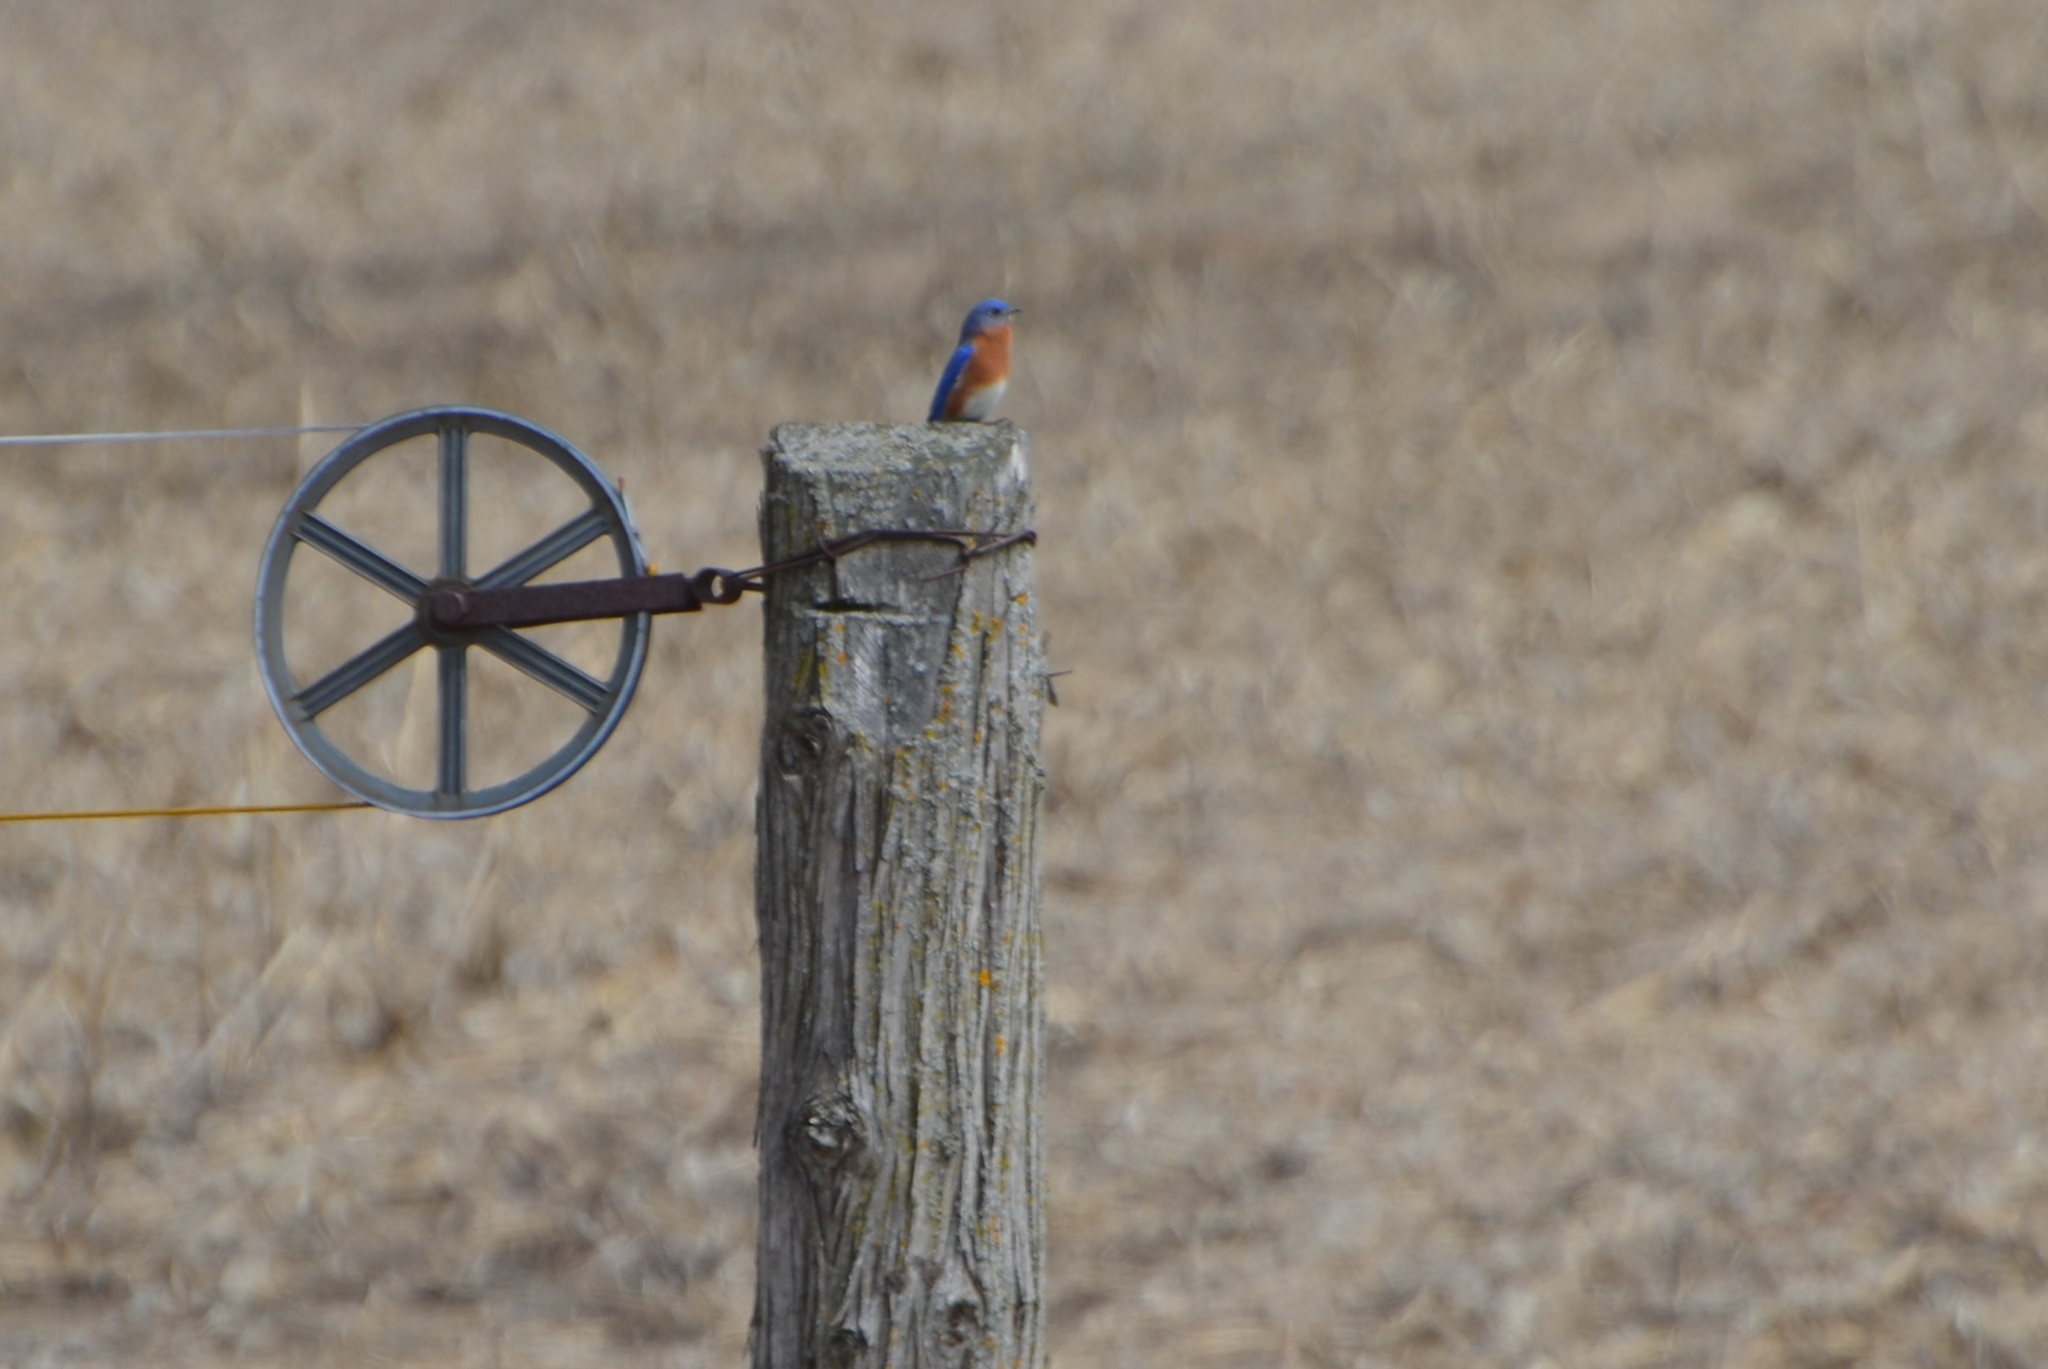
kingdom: Animalia
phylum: Chordata
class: Aves
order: Passeriformes
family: Turdidae
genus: Sialia
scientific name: Sialia sialis
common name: Eastern bluebird
